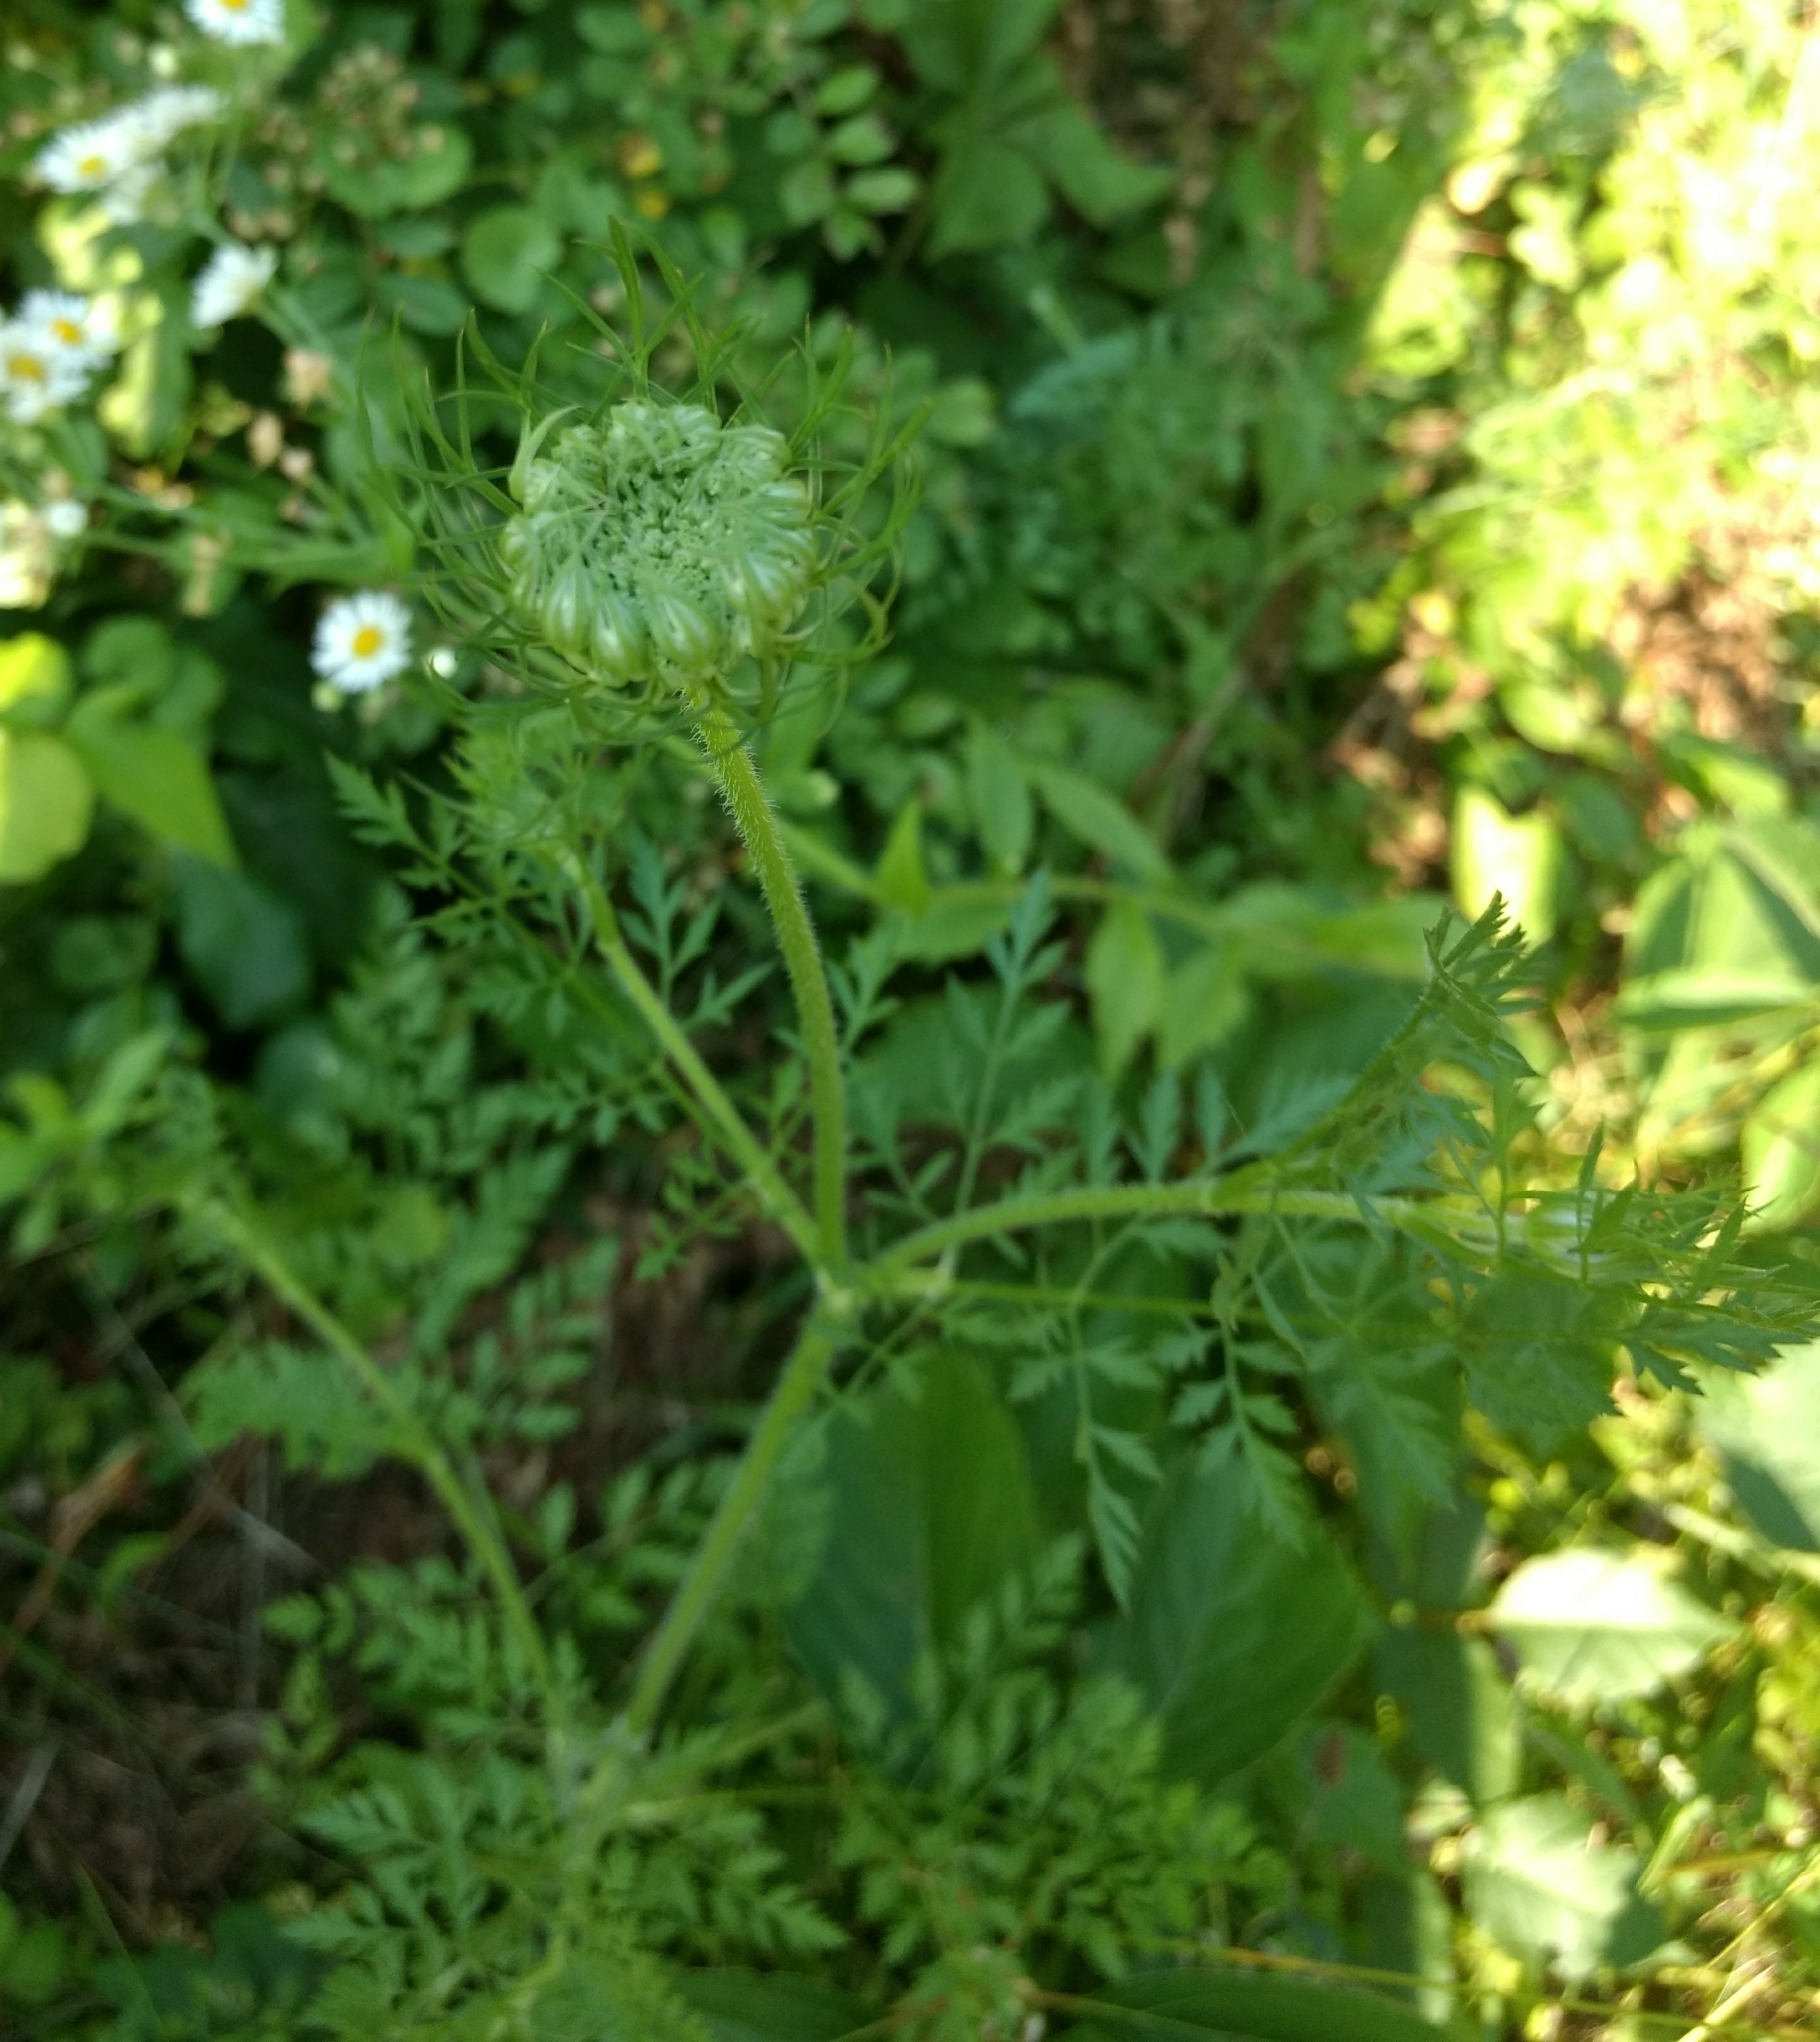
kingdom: Plantae
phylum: Tracheophyta
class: Magnoliopsida
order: Apiales
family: Apiaceae
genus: Daucus
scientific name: Daucus carota
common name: Wild carrot
